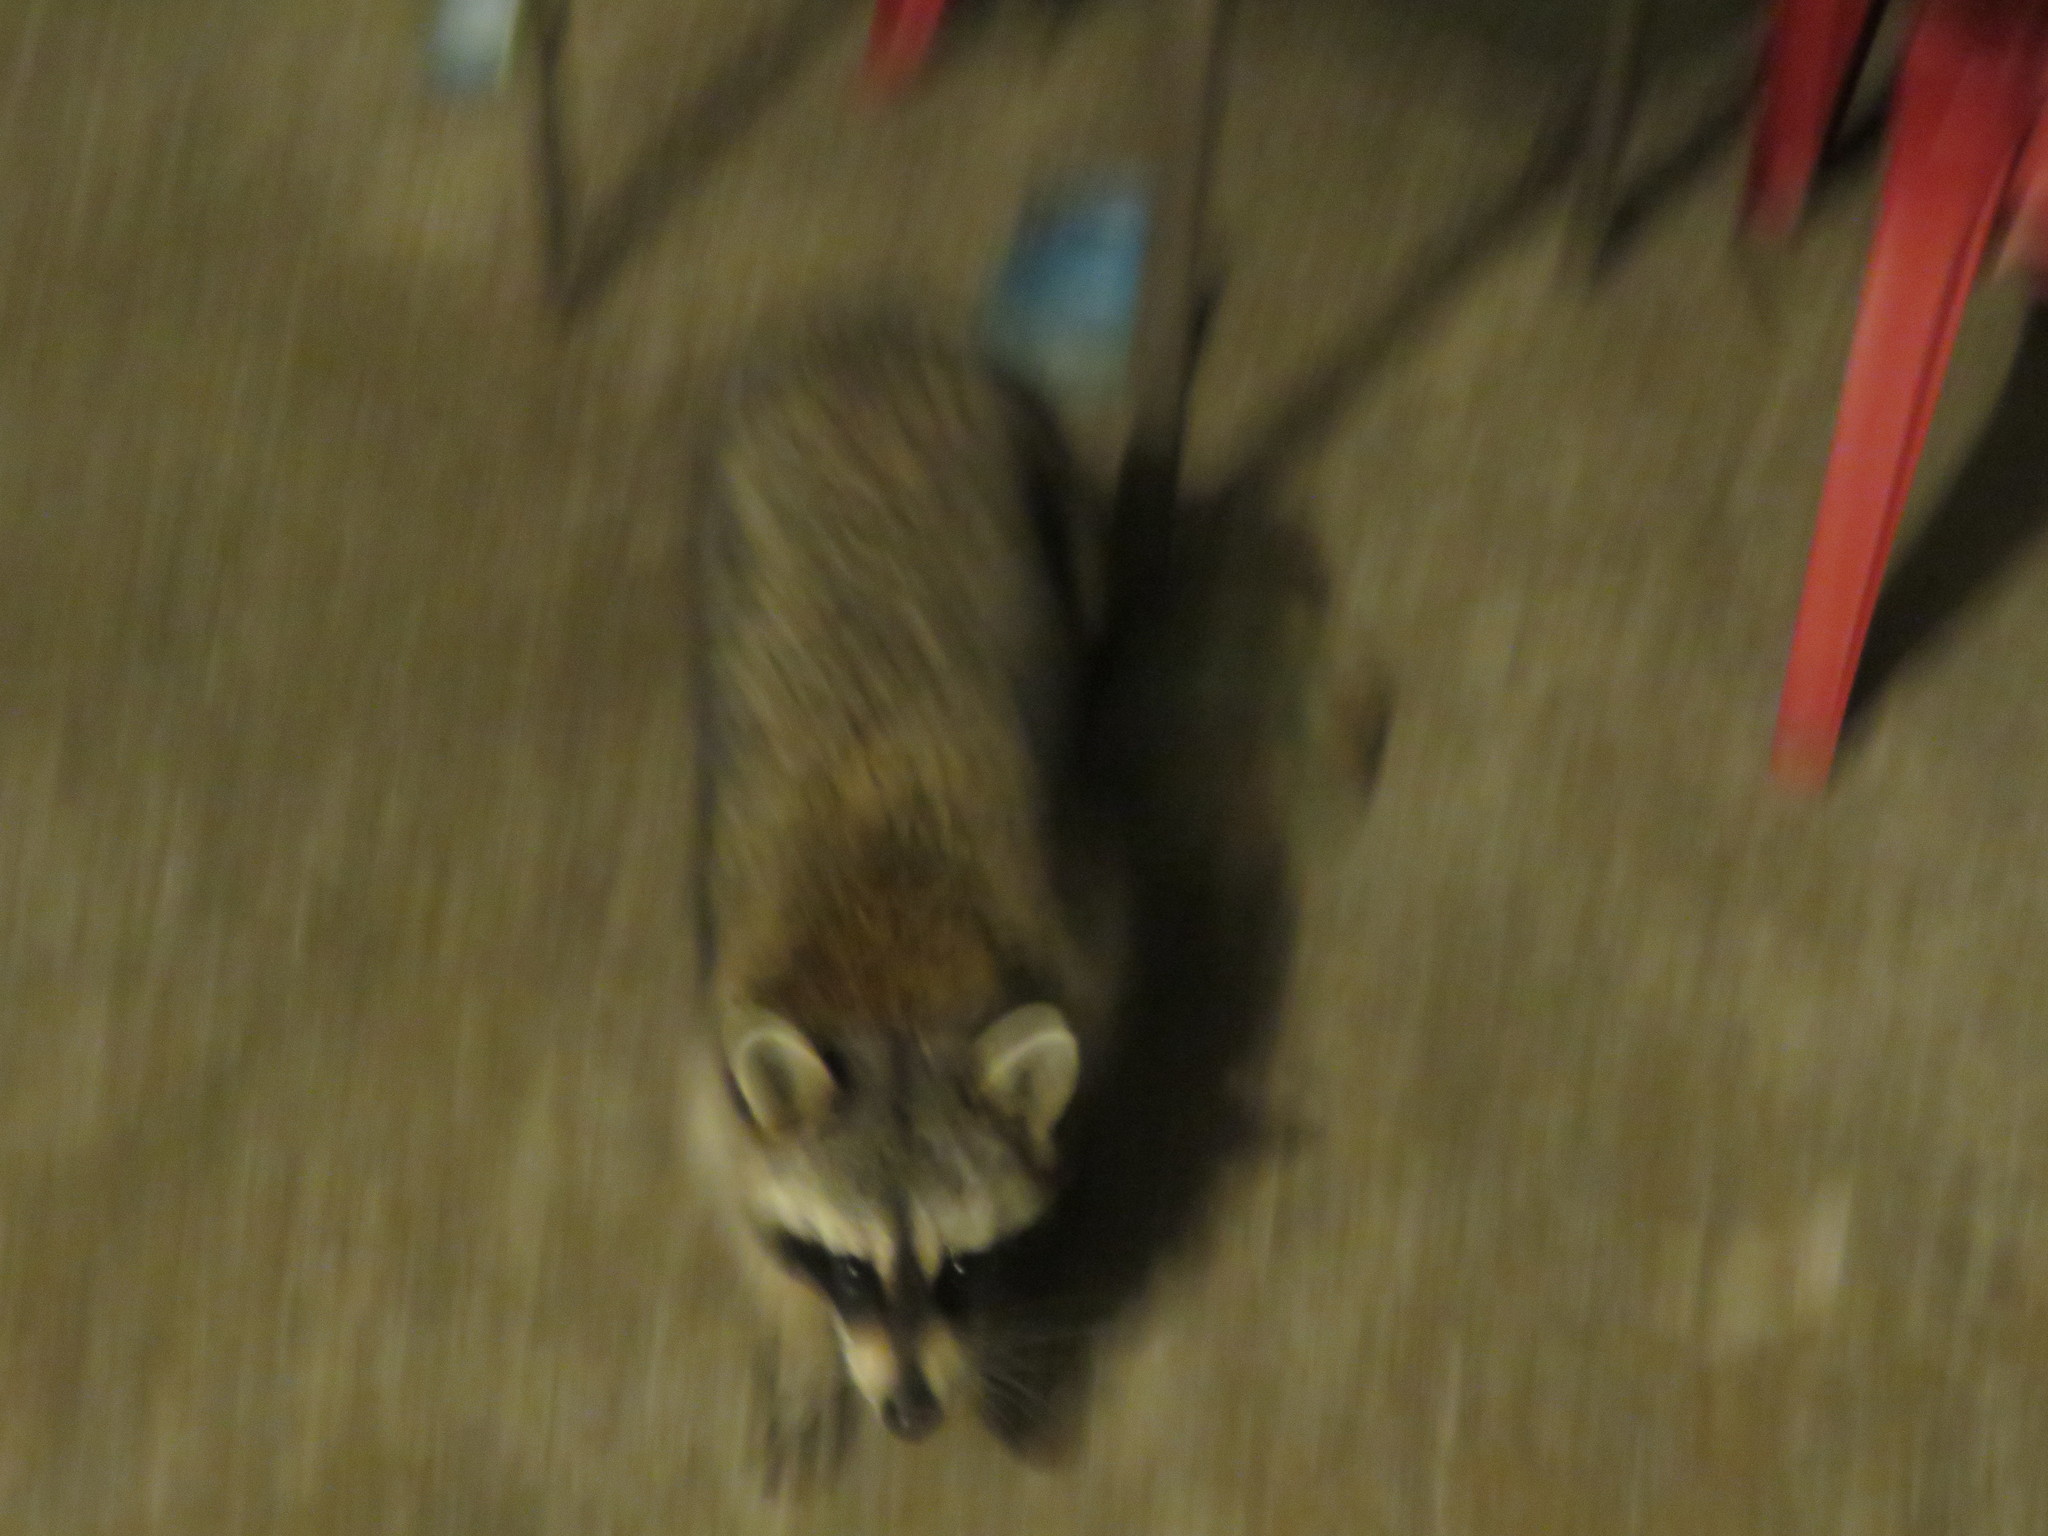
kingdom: Animalia
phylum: Chordata
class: Mammalia
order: Carnivora
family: Procyonidae
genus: Procyon
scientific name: Procyon lotor
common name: Raccoon
